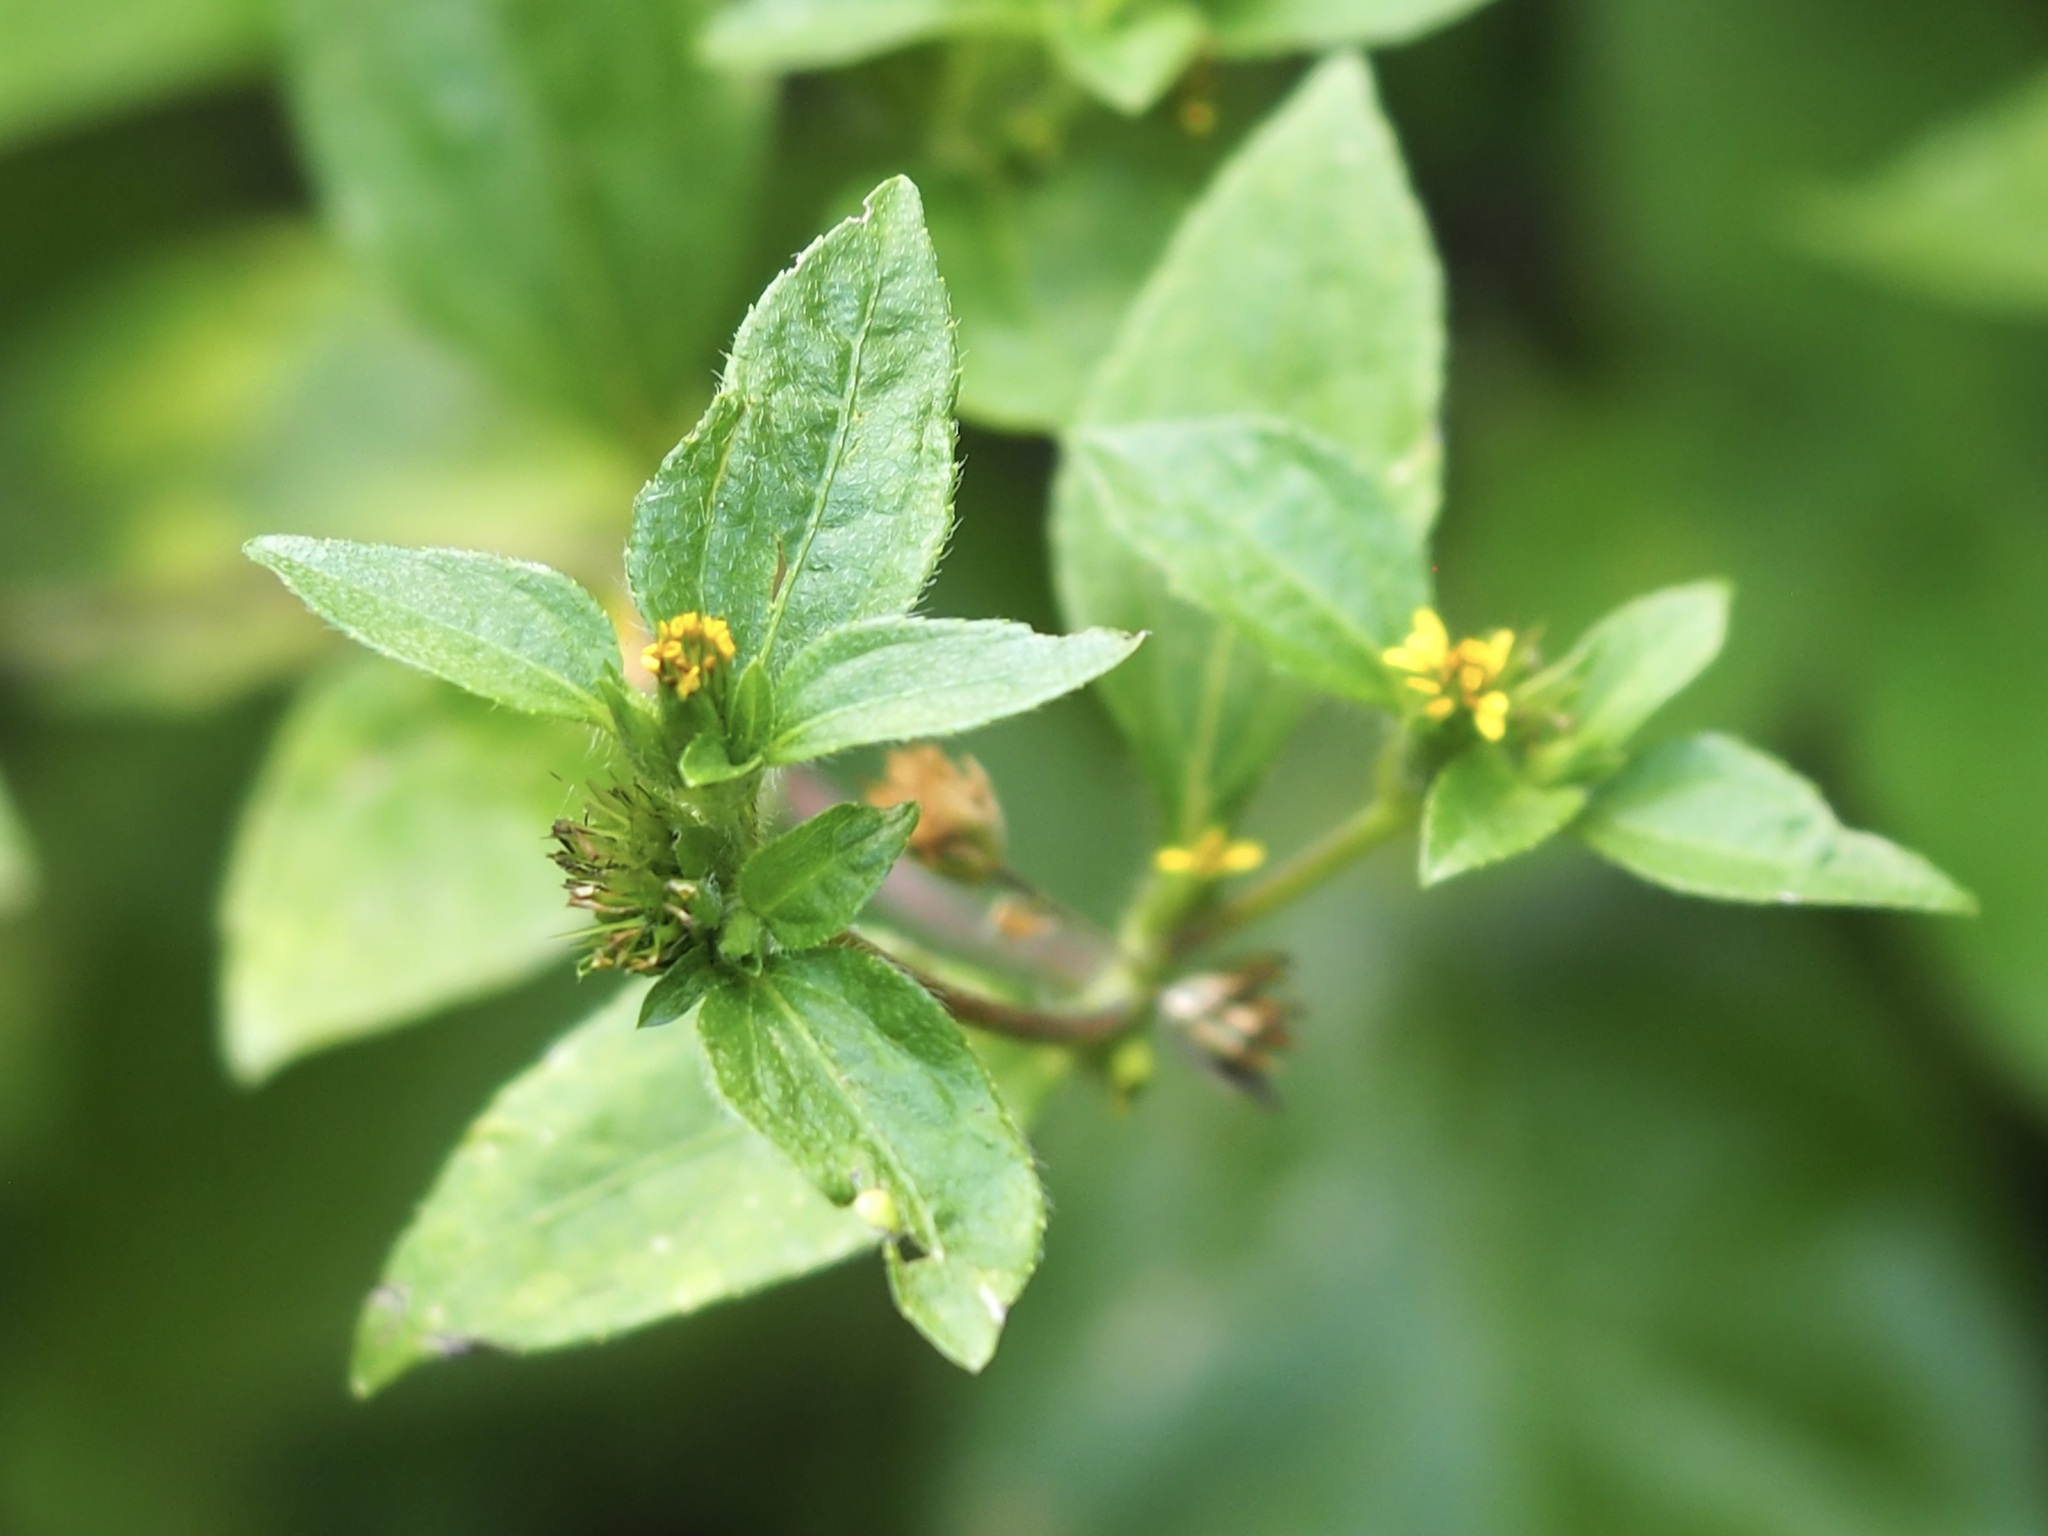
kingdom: Plantae
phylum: Tracheophyta
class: Magnoliopsida
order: Asterales
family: Asteraceae
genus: Synedrella
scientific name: Synedrella nodiflora
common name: Nodeweed
